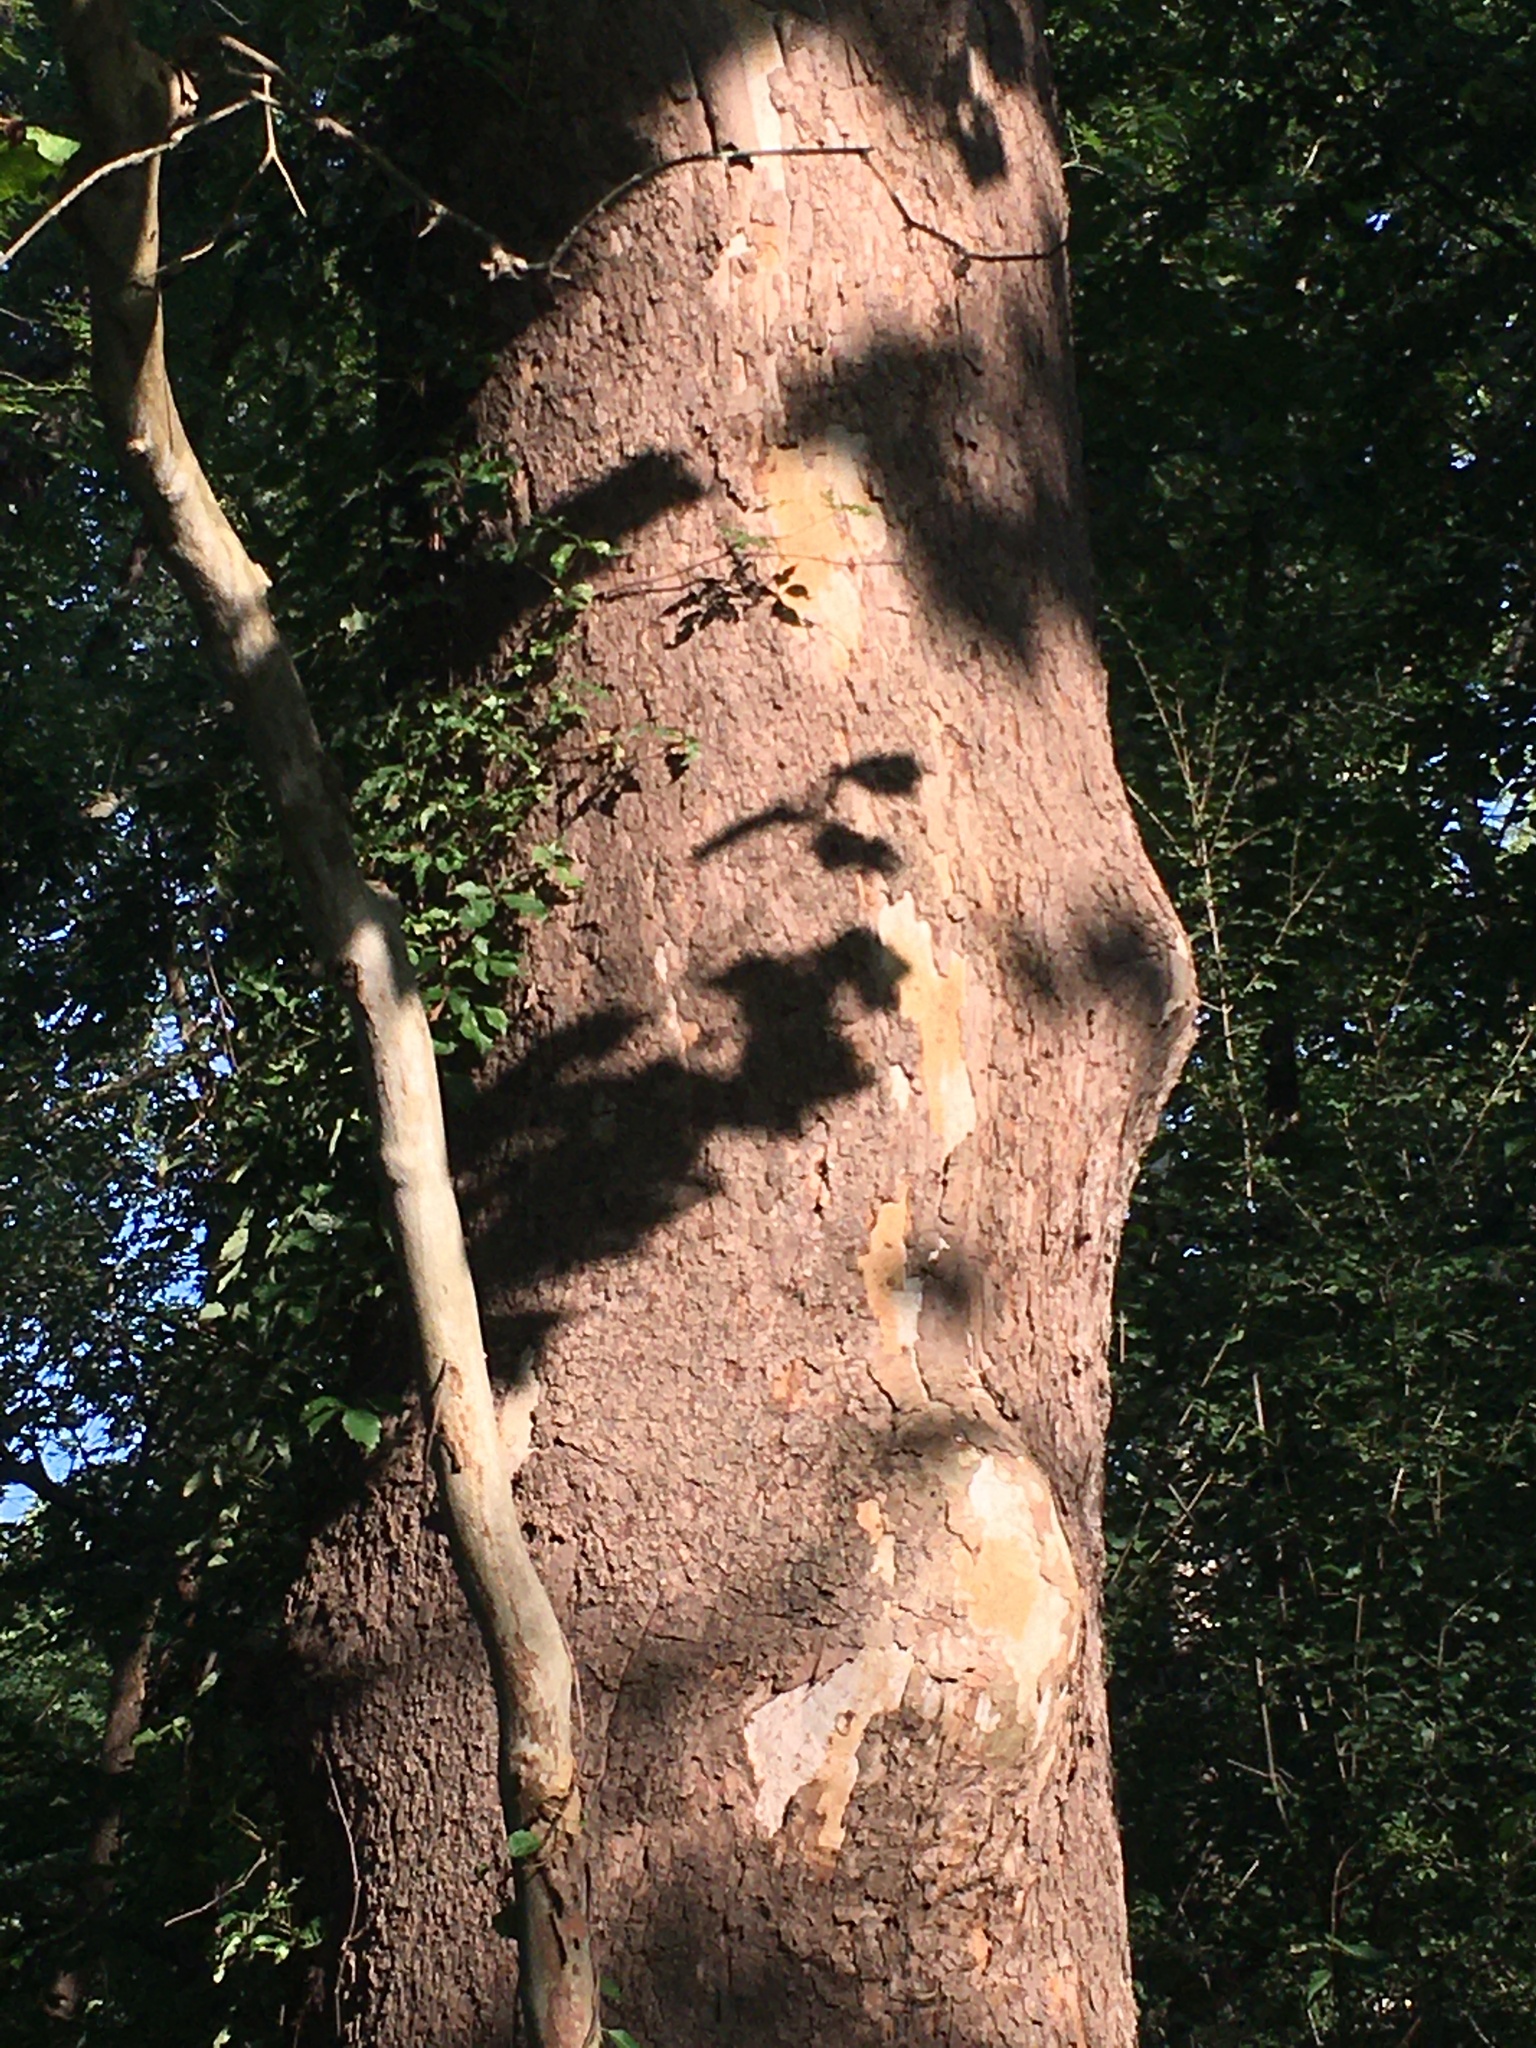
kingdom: Plantae
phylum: Tracheophyta
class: Magnoliopsida
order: Proteales
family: Platanaceae
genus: Platanus
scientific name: Platanus occidentalis
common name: American sycamore
